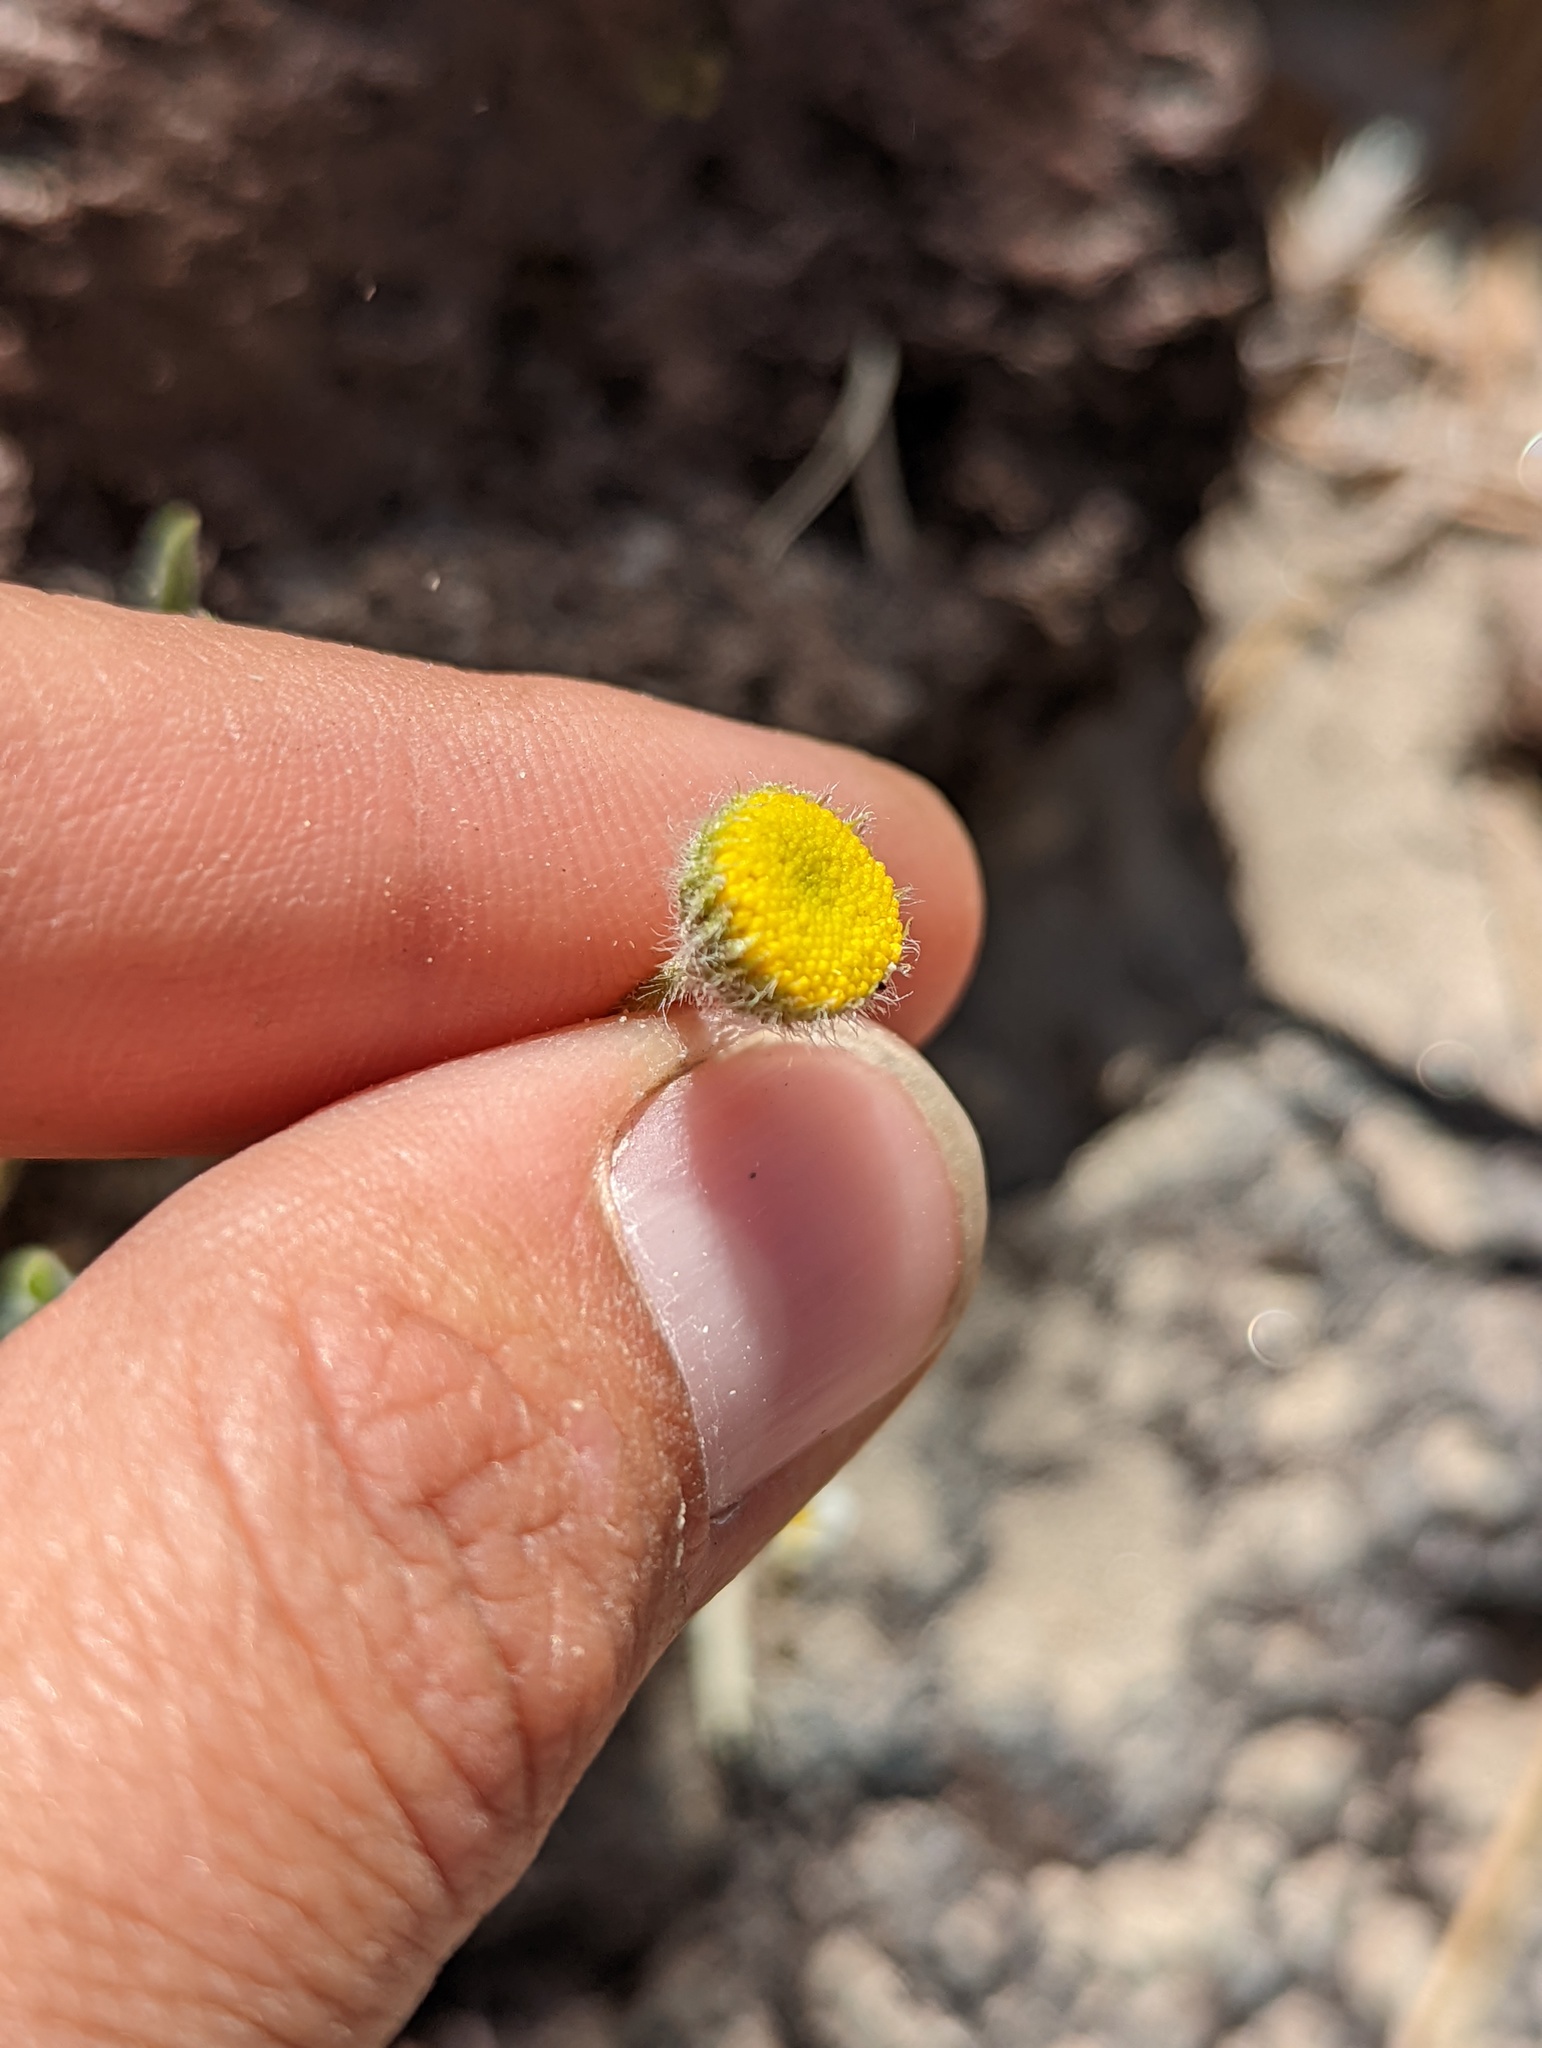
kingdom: Plantae
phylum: Tracheophyta
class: Magnoliopsida
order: Asterales
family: Asteraceae
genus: Erigeron
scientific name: Erigeron aphanactis
